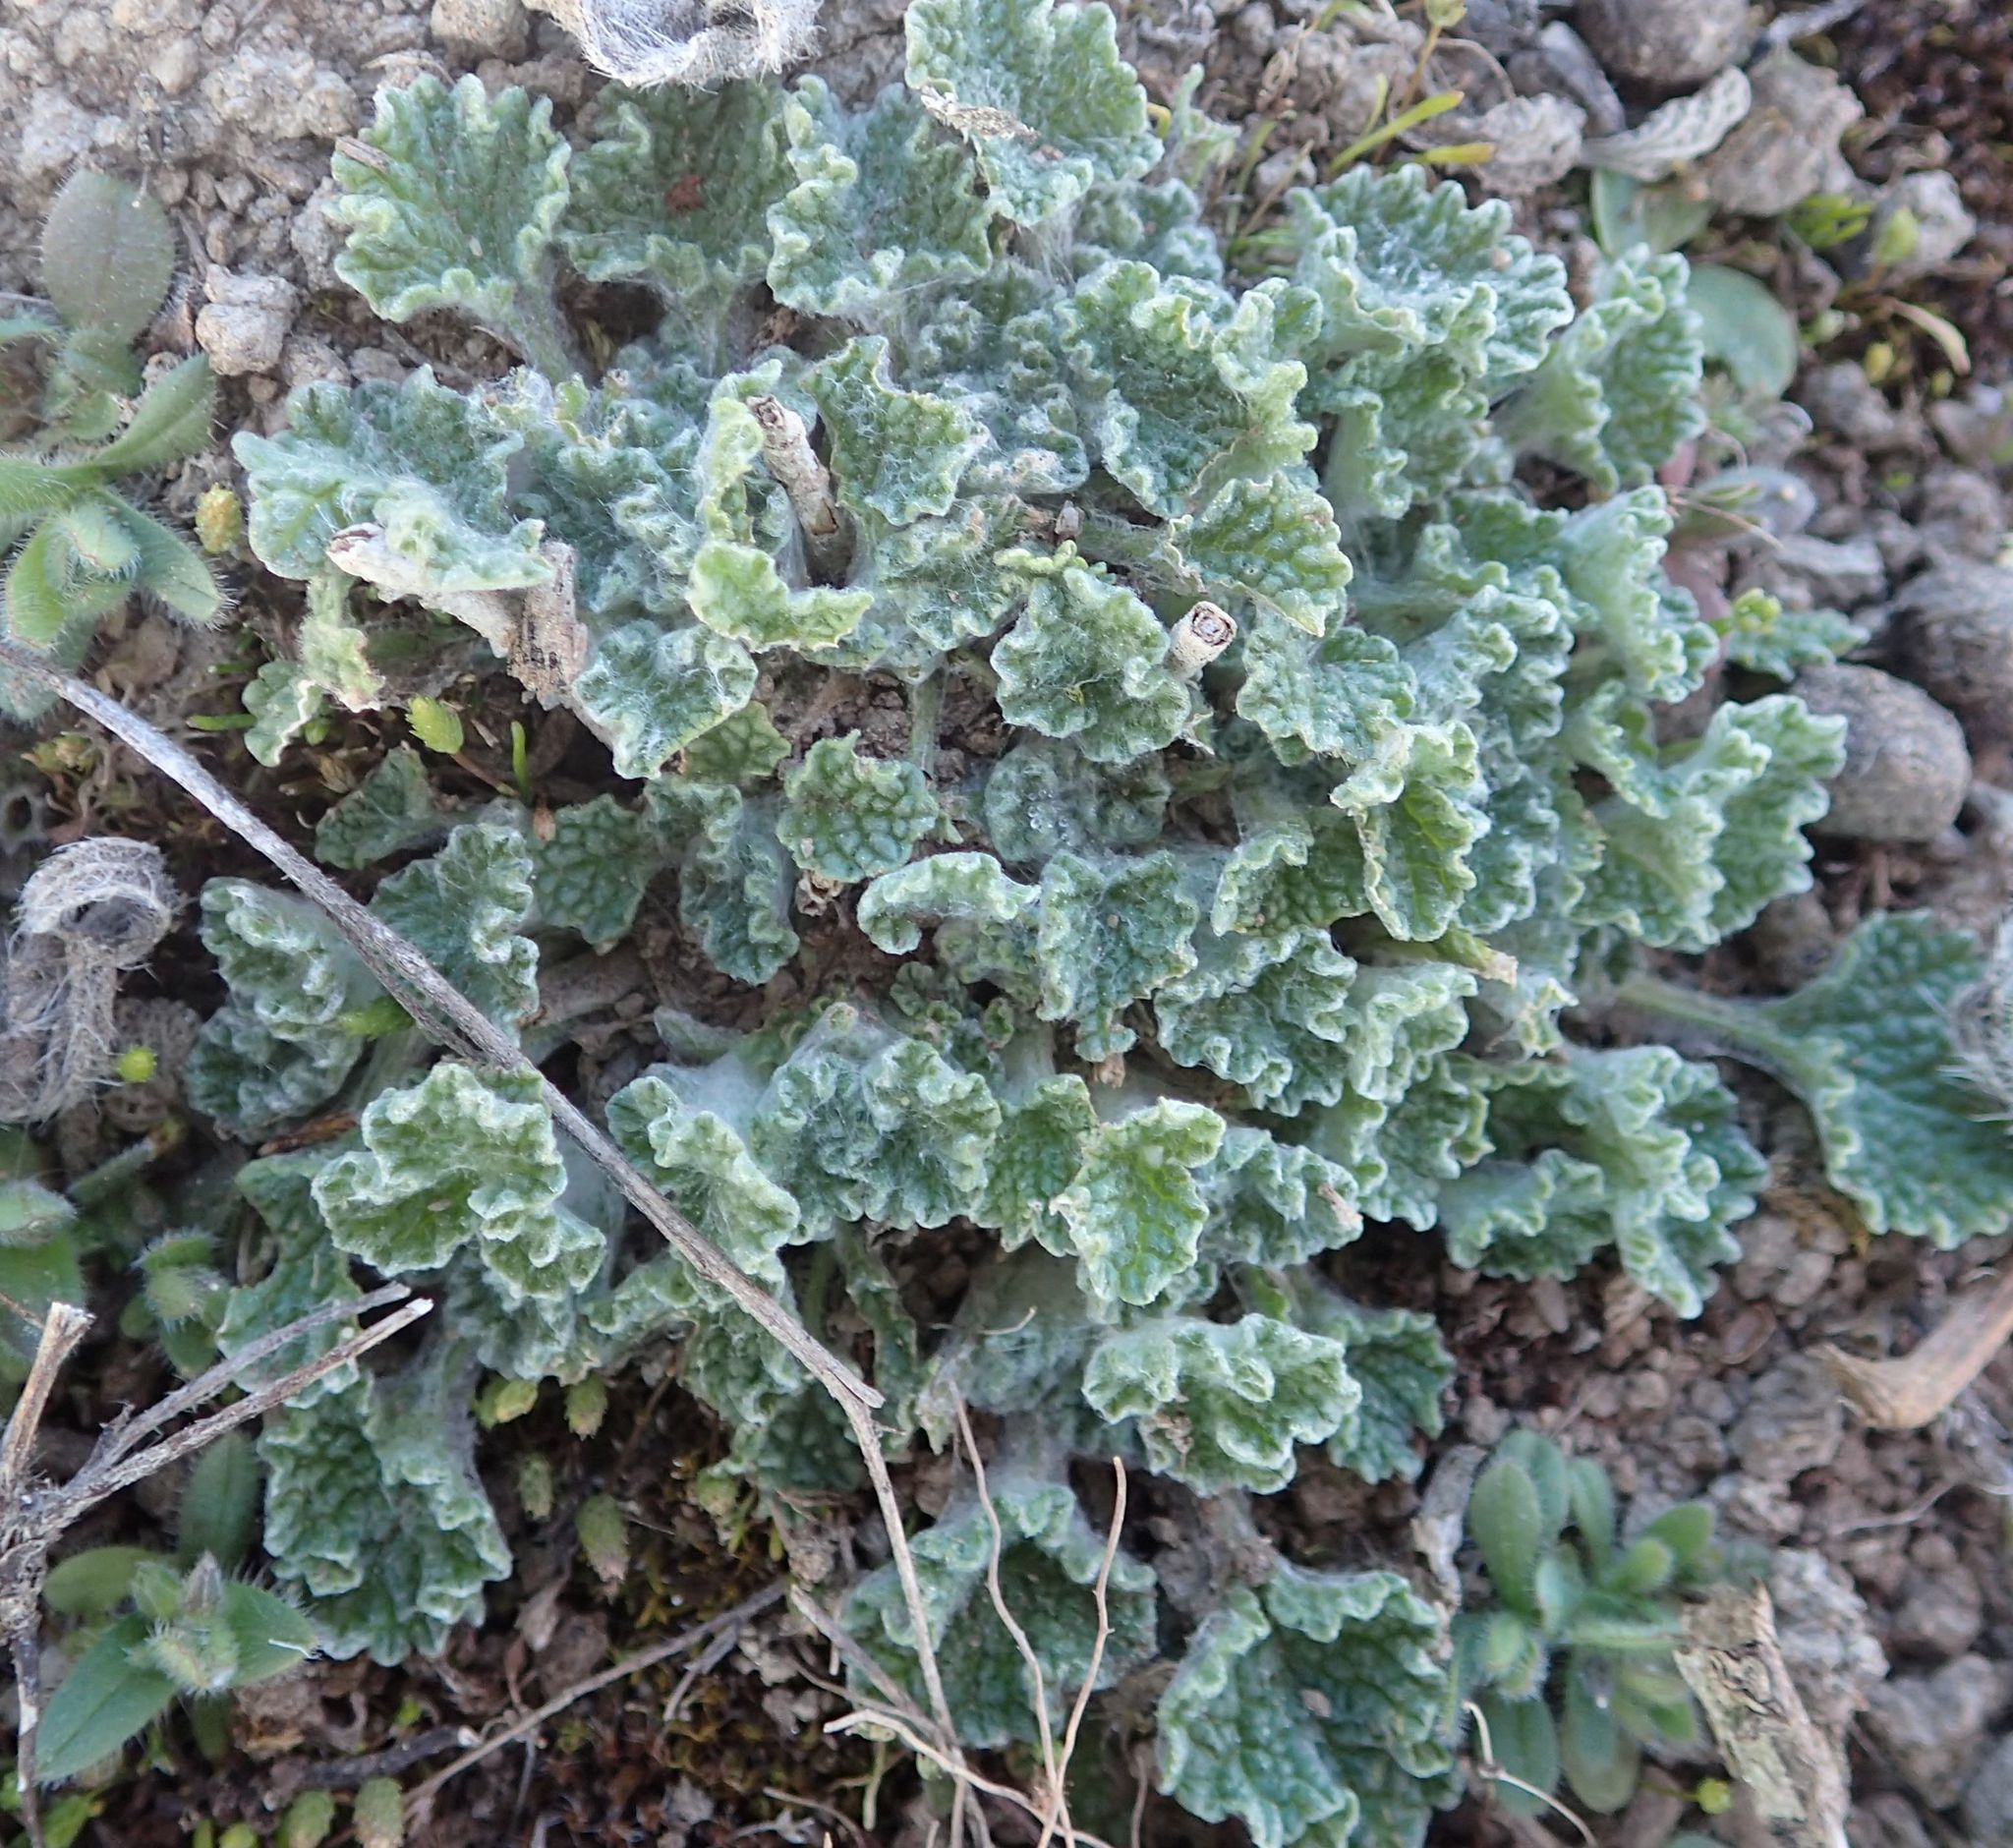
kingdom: Plantae
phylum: Tracheophyta
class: Magnoliopsida
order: Lamiales
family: Lamiaceae
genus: Marrubium
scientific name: Marrubium vulgare
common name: Horehound
